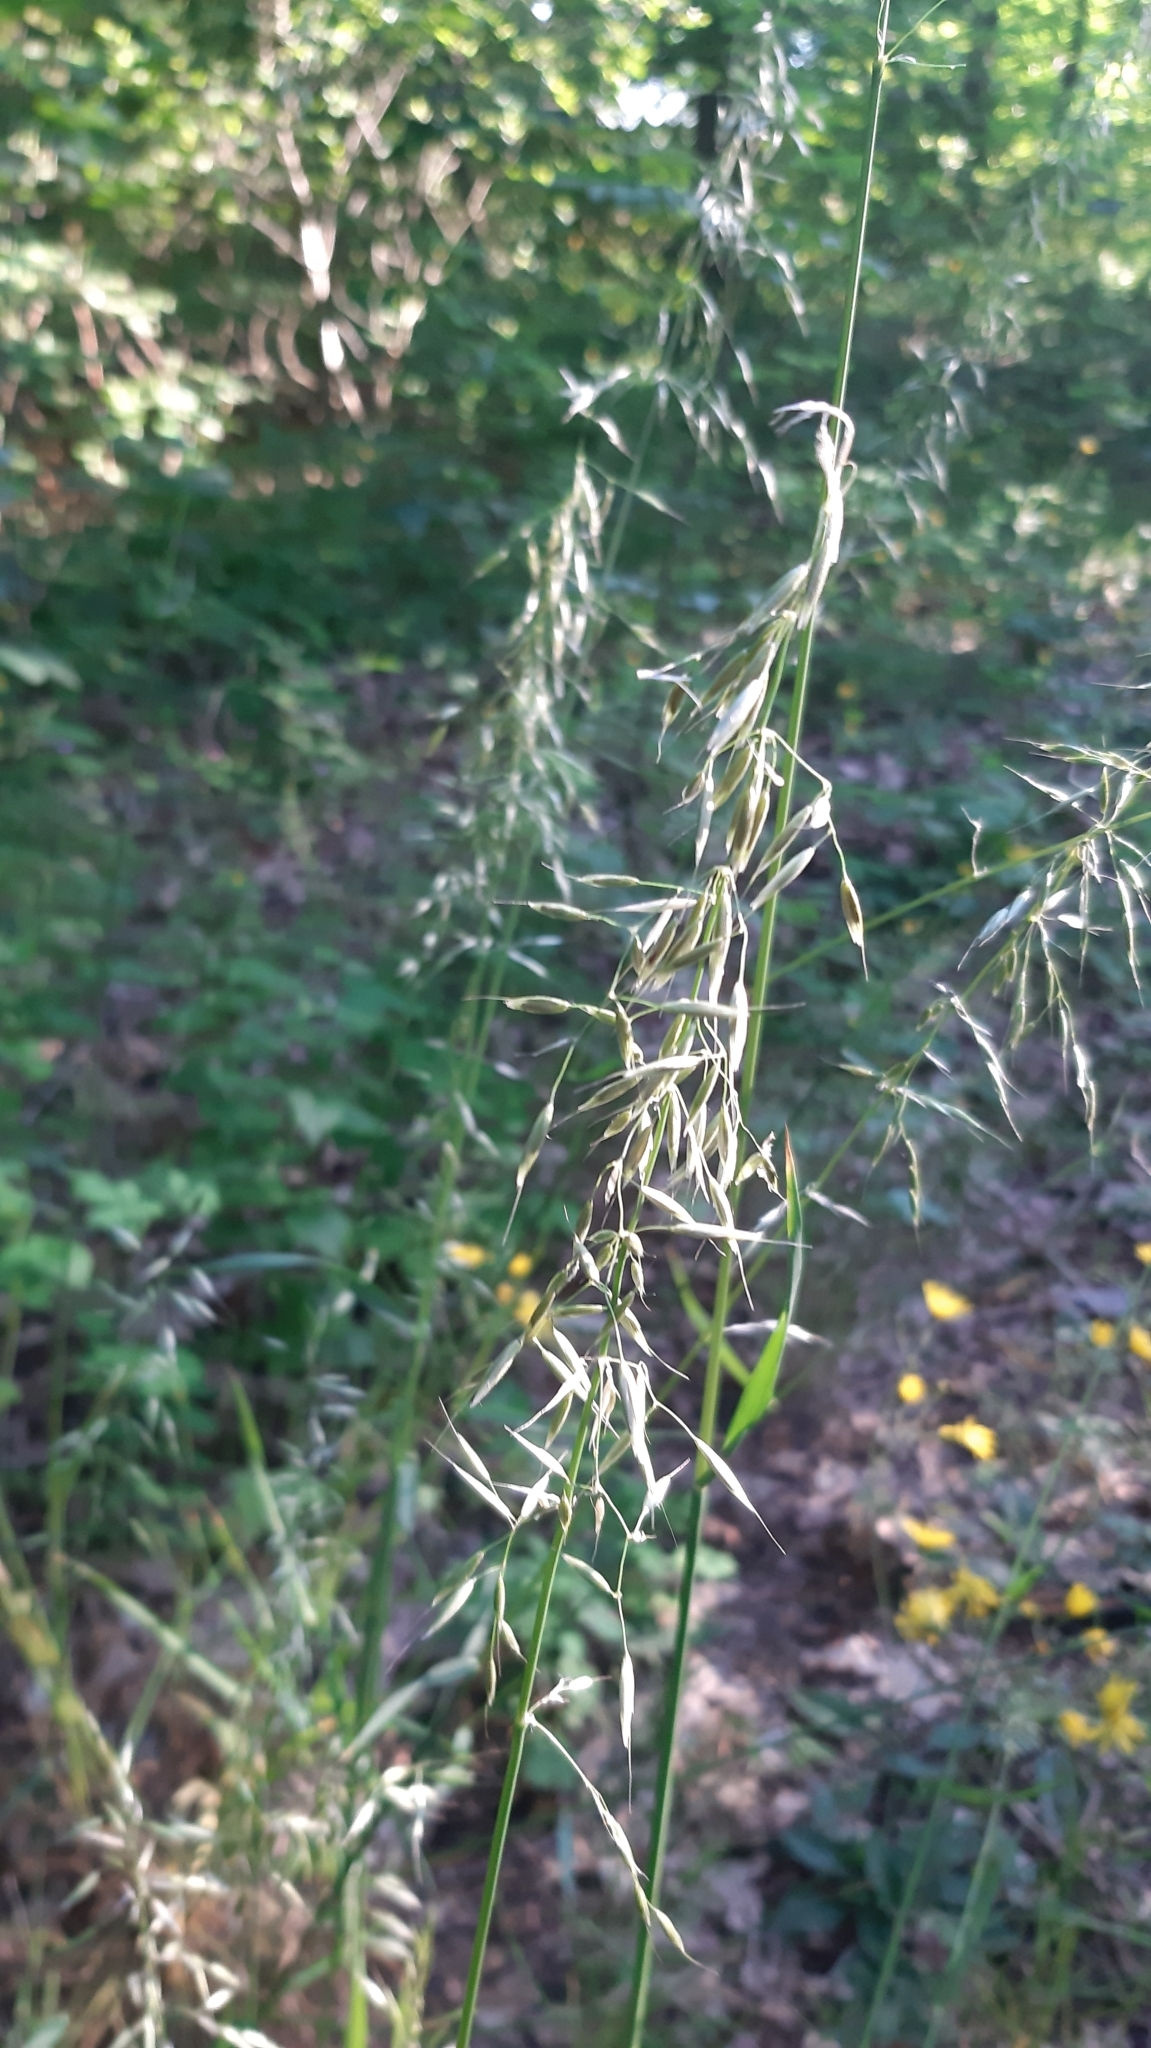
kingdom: Plantae
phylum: Tracheophyta
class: Liliopsida
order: Poales
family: Poaceae
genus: Arrhenatherum
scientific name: Arrhenatherum elatius
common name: Tall oatgrass
